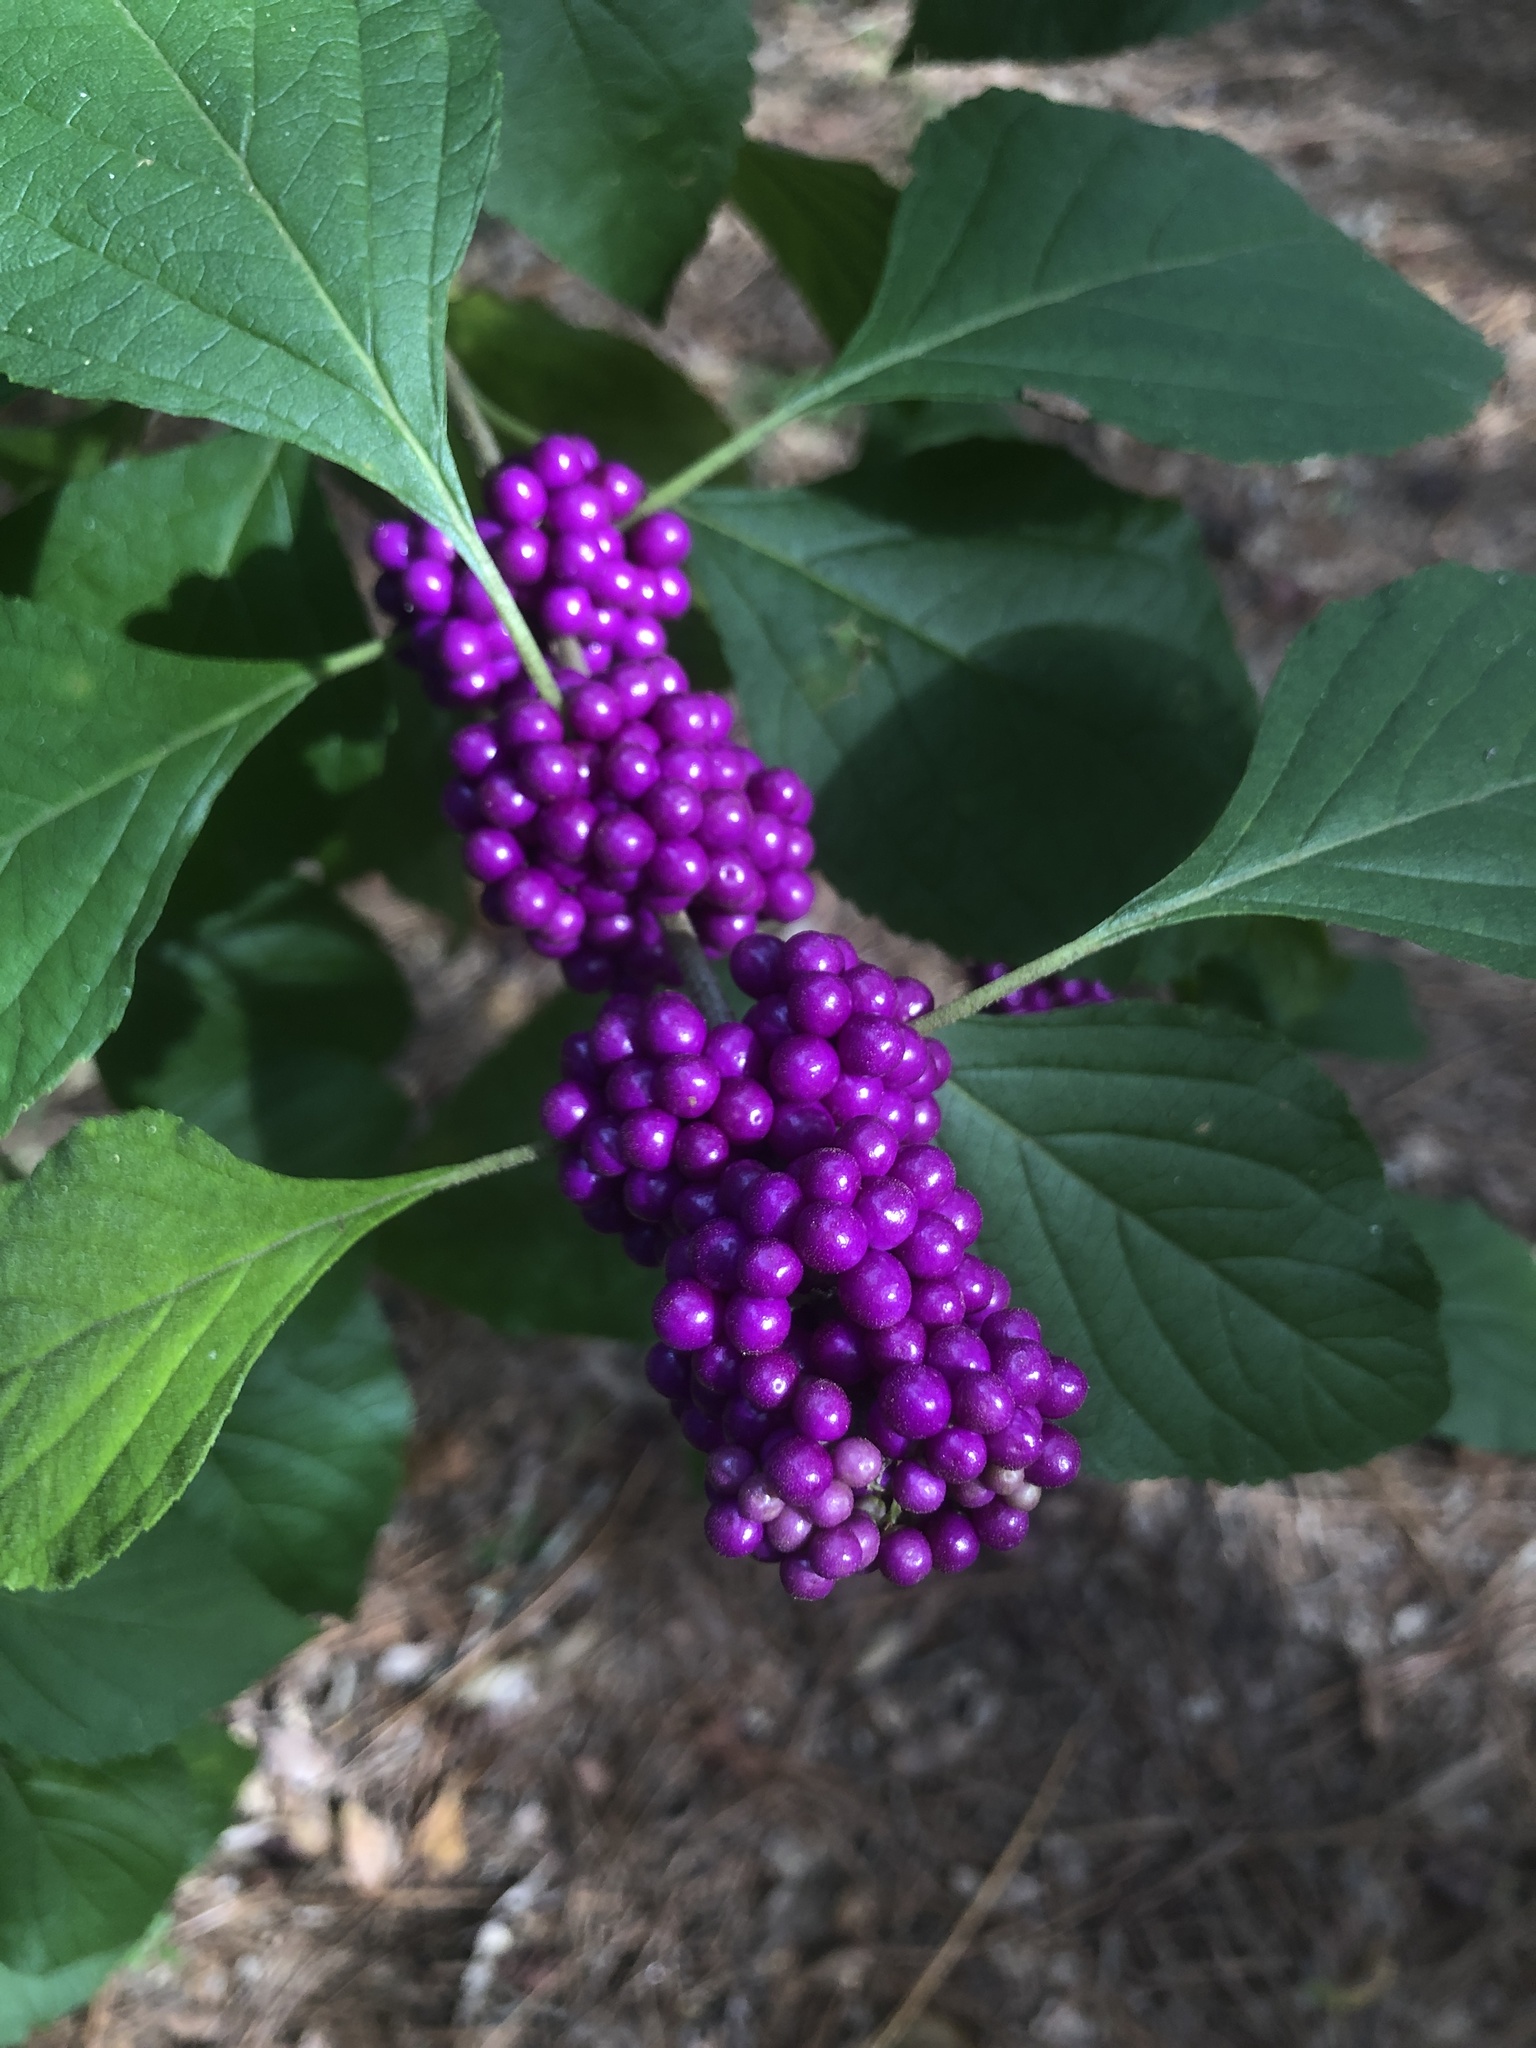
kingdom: Plantae
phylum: Tracheophyta
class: Magnoliopsida
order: Lamiales
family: Lamiaceae
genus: Callicarpa
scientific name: Callicarpa americana
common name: American beautyberry
